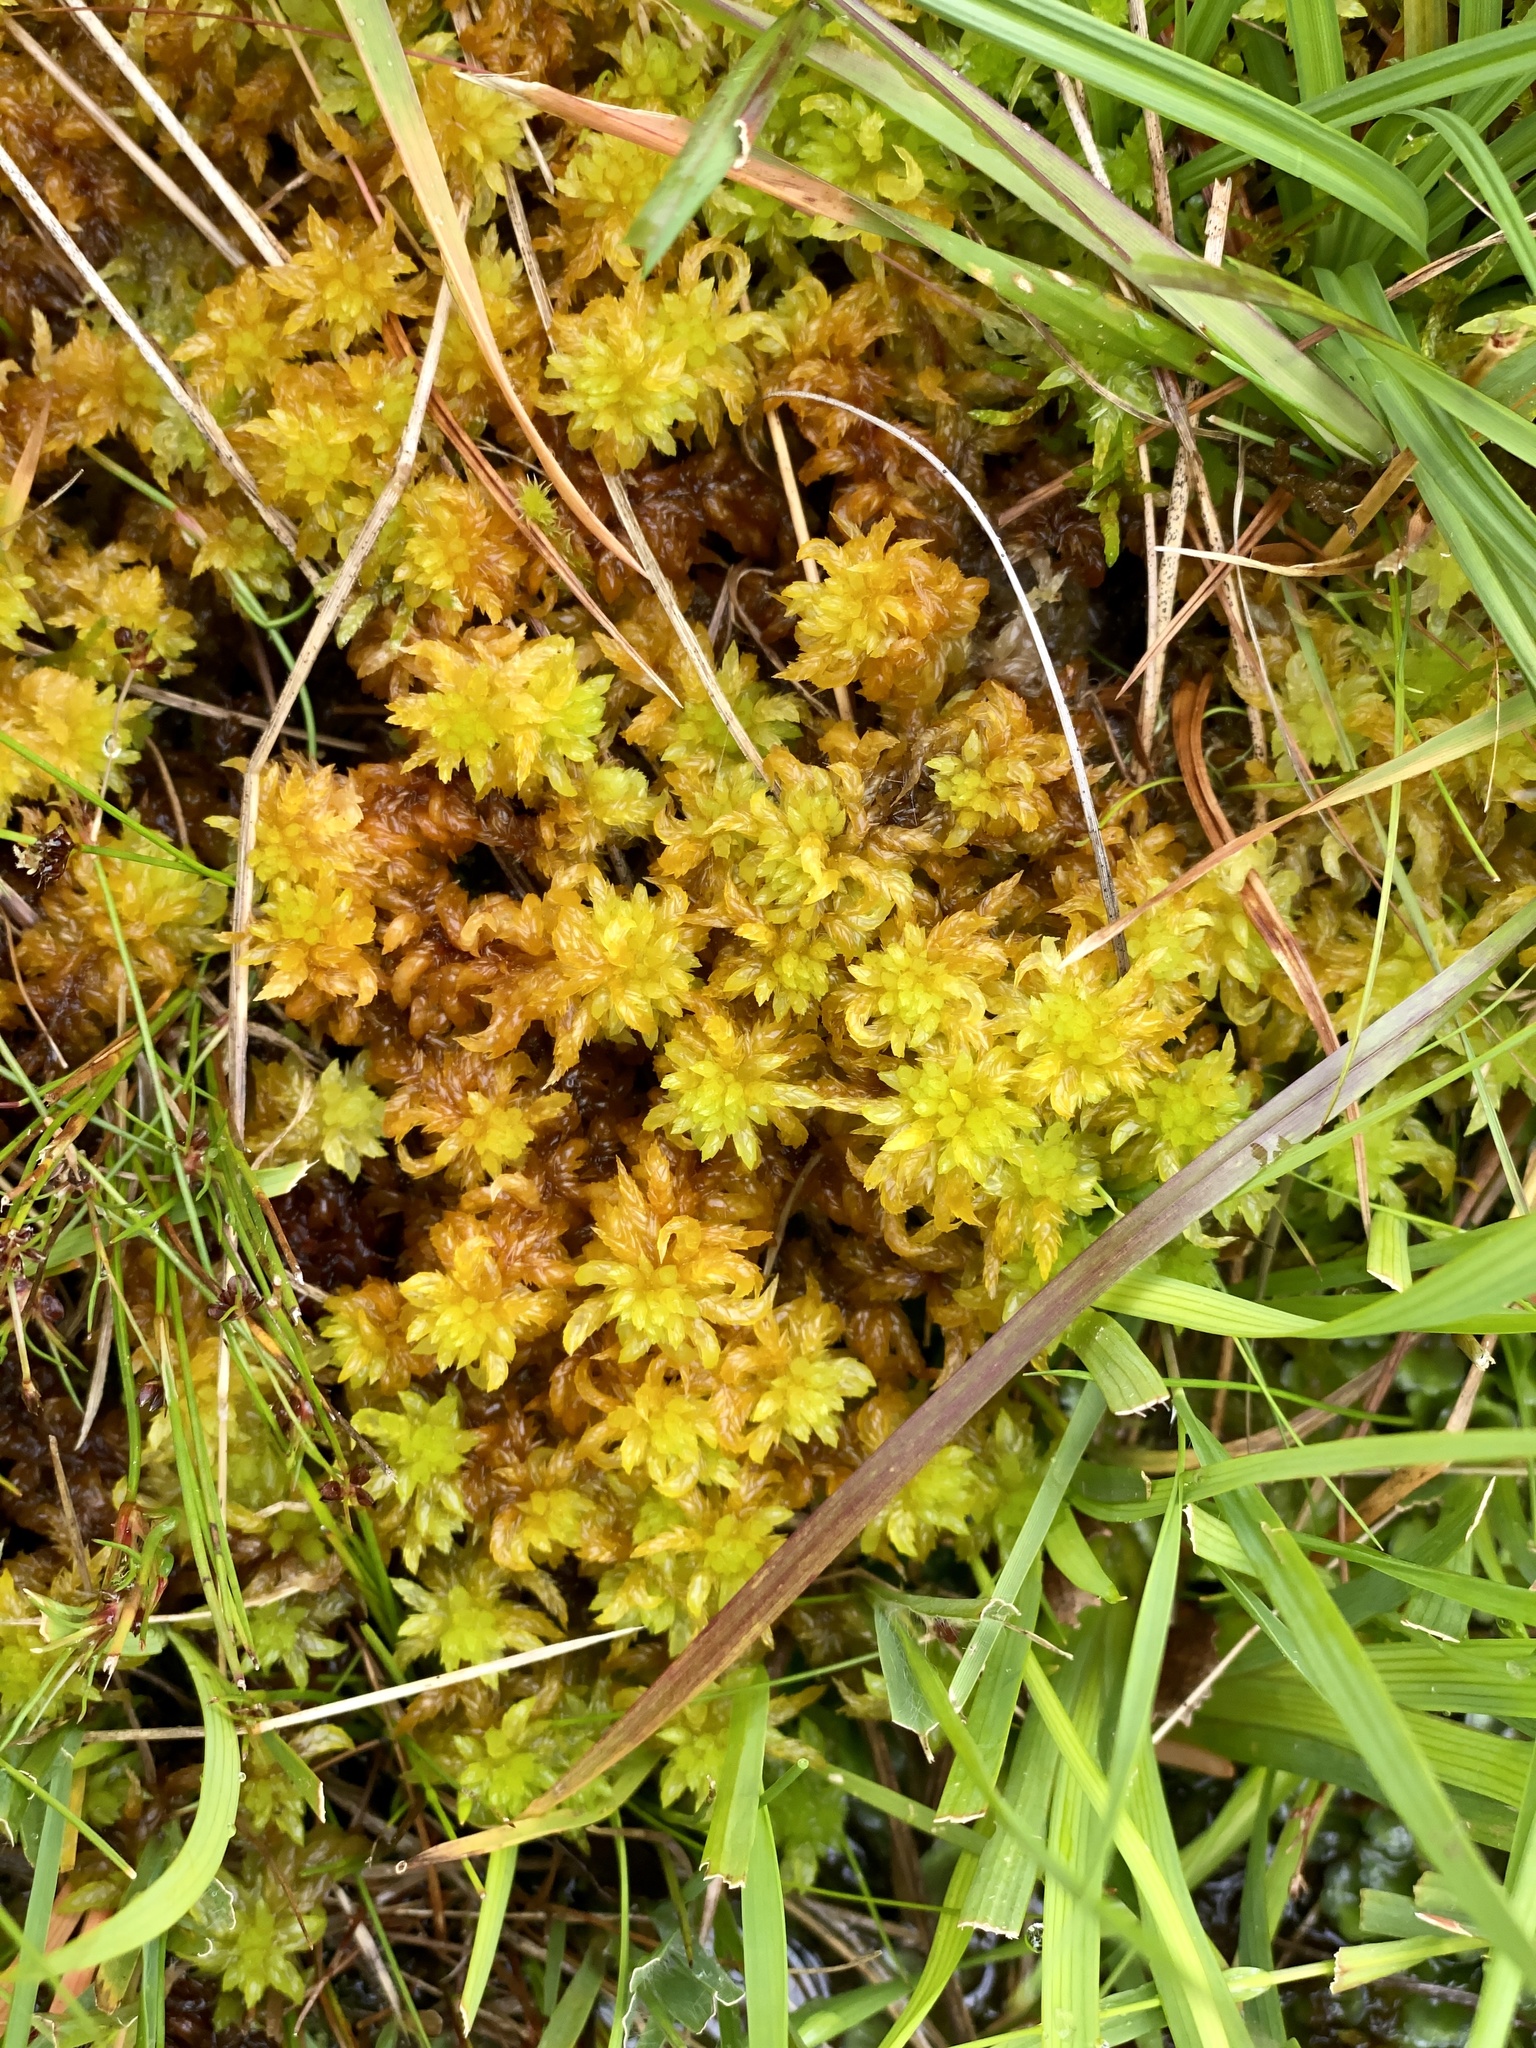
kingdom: Plantae
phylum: Bryophyta
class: Sphagnopsida
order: Sphagnales
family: Sphagnaceae
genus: Sphagnum
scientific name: Sphagnum denticulatum
